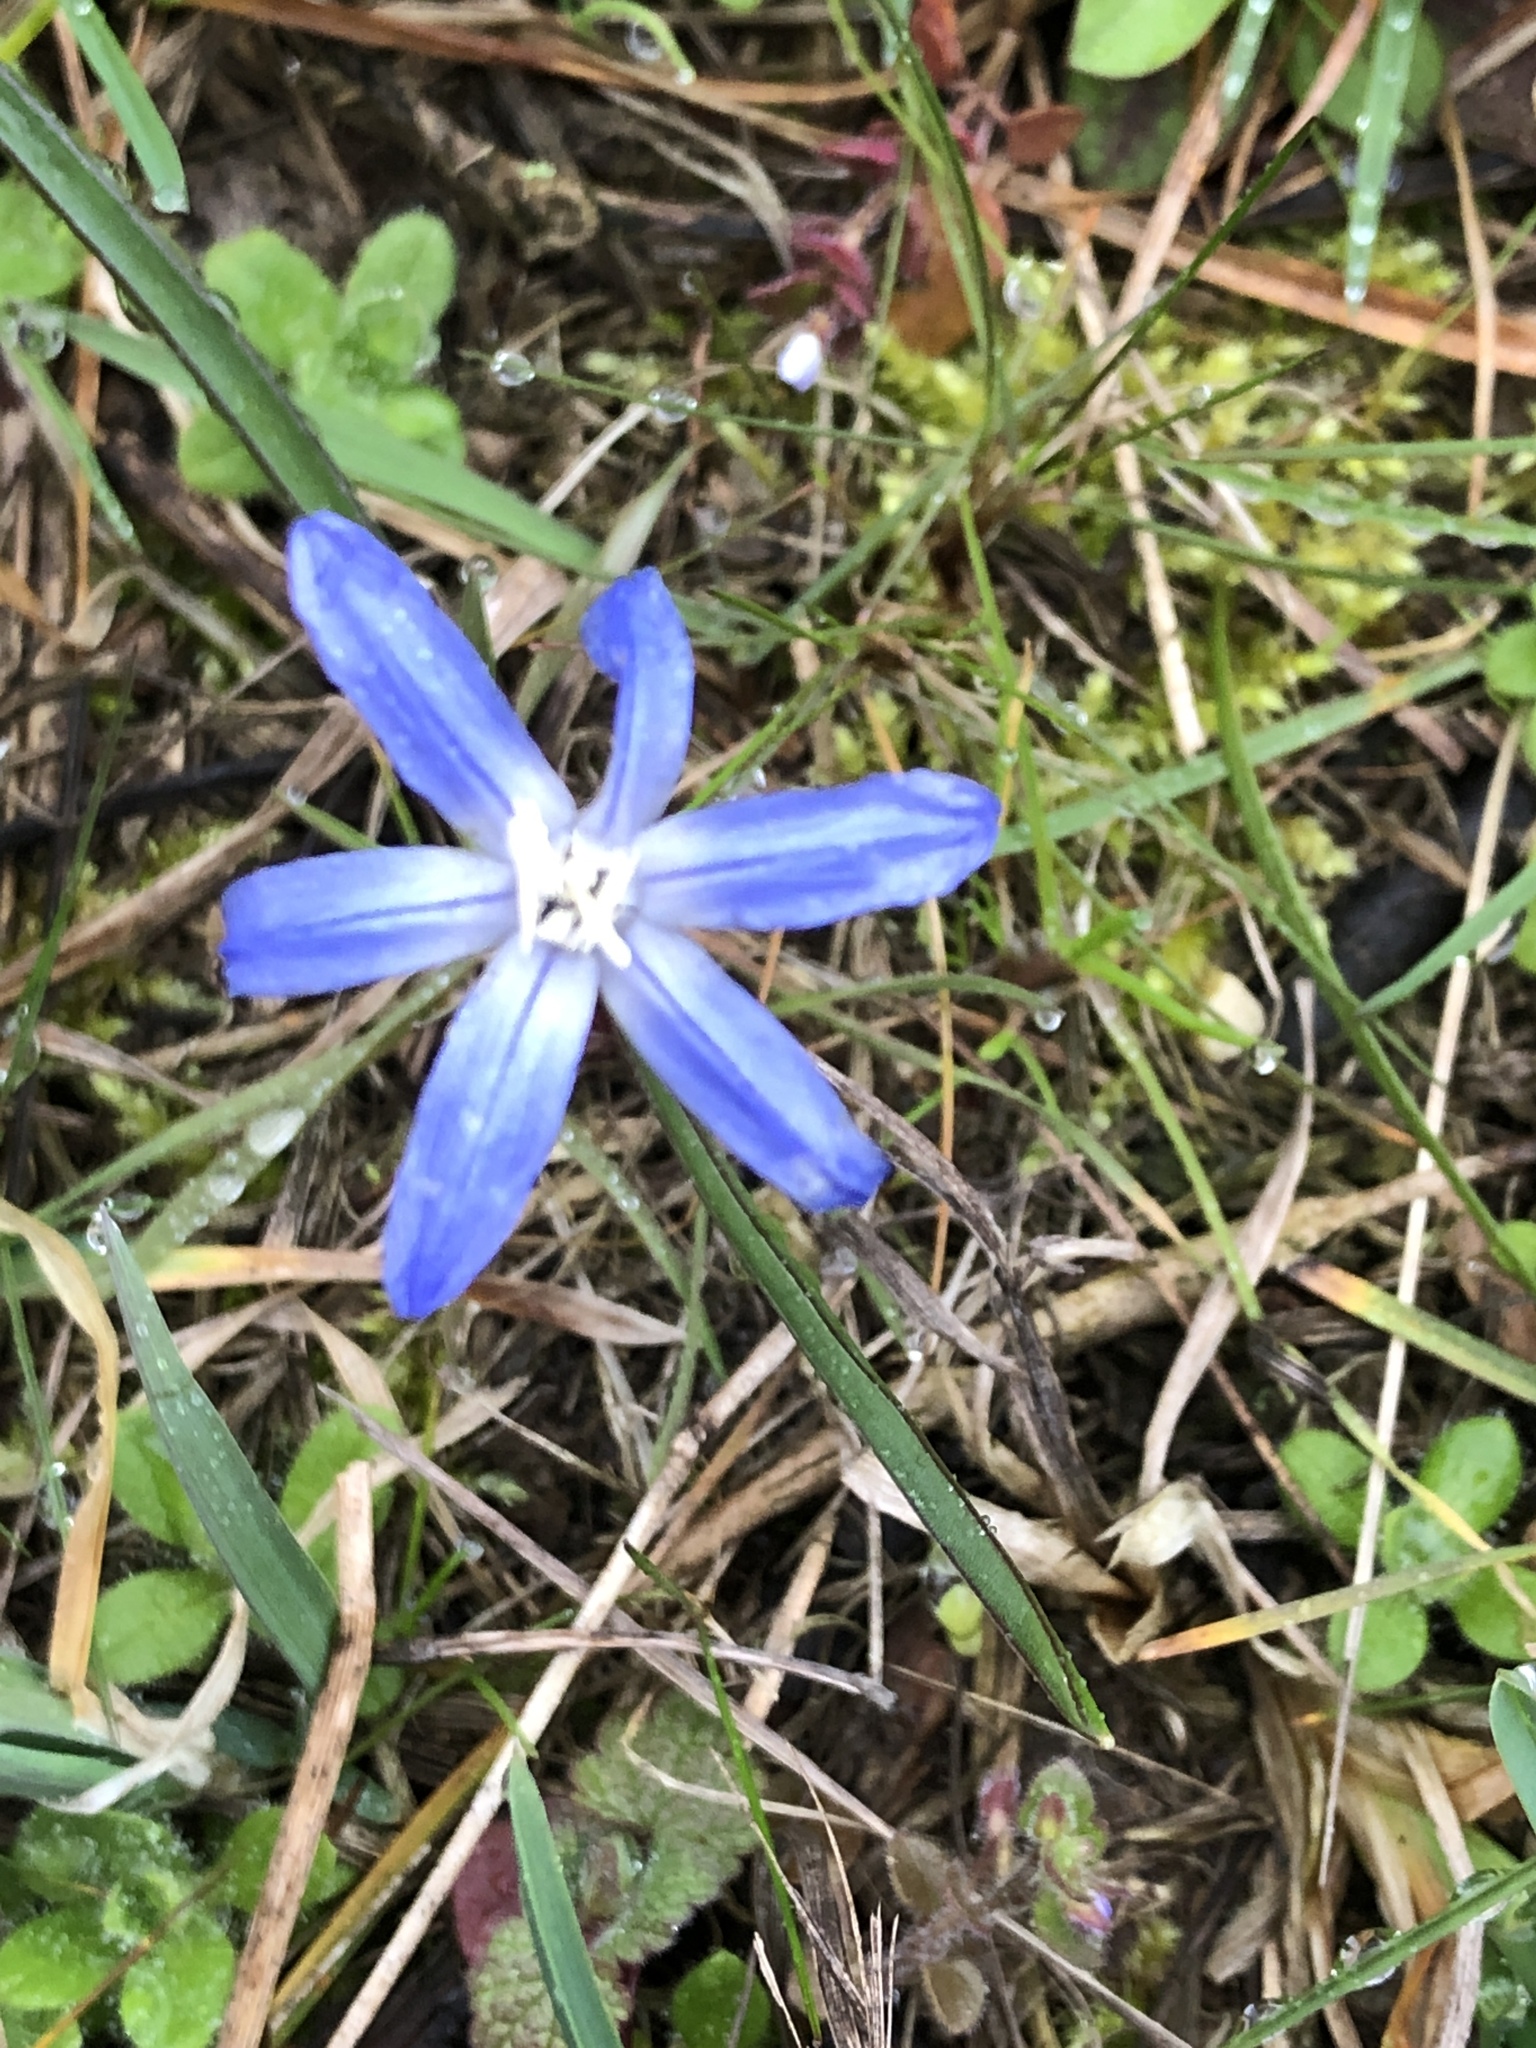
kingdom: Plantae
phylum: Tracheophyta
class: Liliopsida
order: Asparagales
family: Asparagaceae
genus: Scilla
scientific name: Scilla forbesii
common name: Glory-of-the-snow
